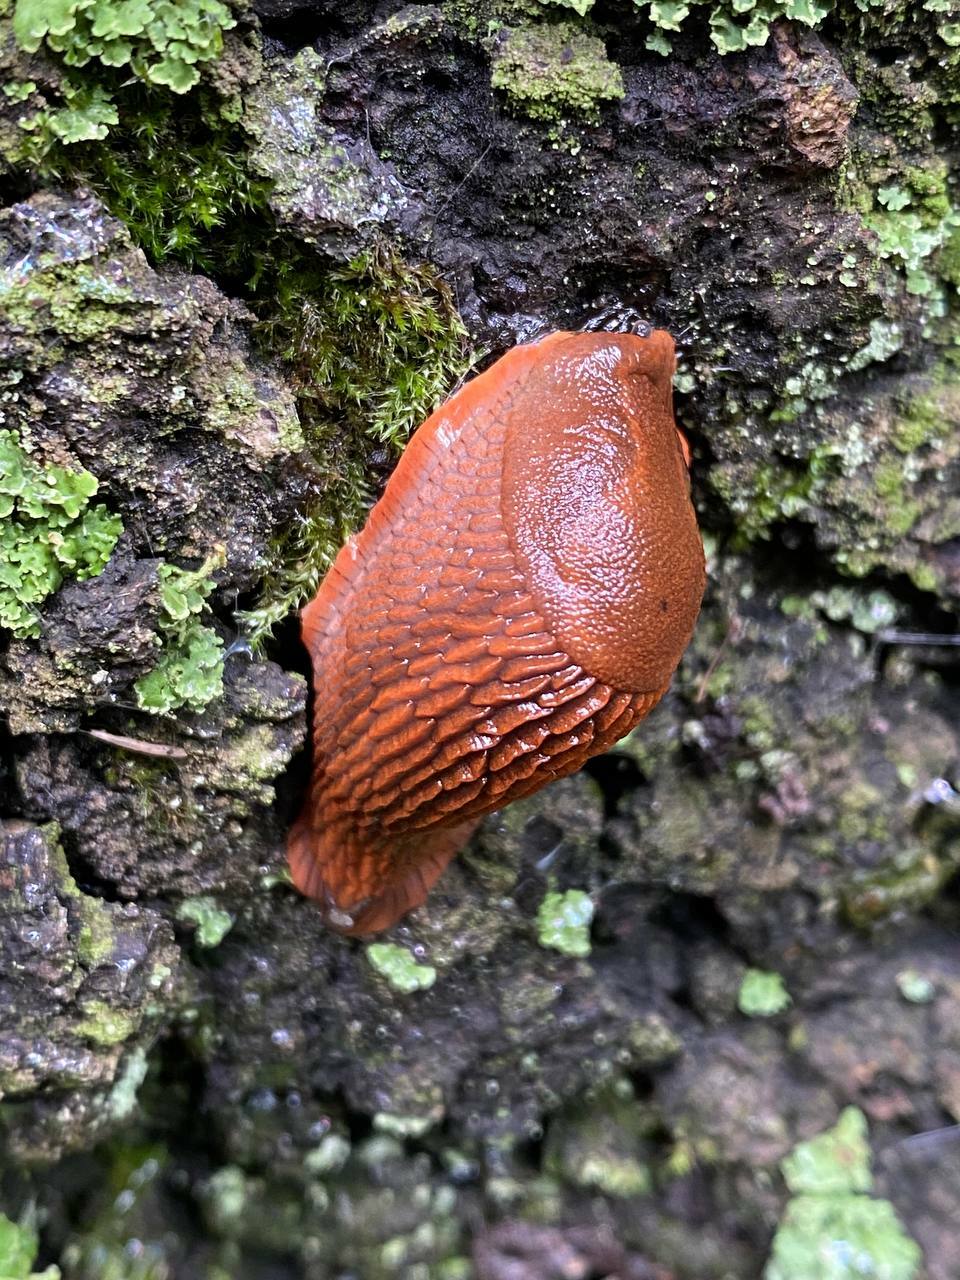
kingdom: Animalia
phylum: Mollusca
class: Gastropoda
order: Stylommatophora
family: Arionidae
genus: Arion
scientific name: Arion vulgaris
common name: Lusitanian slug
